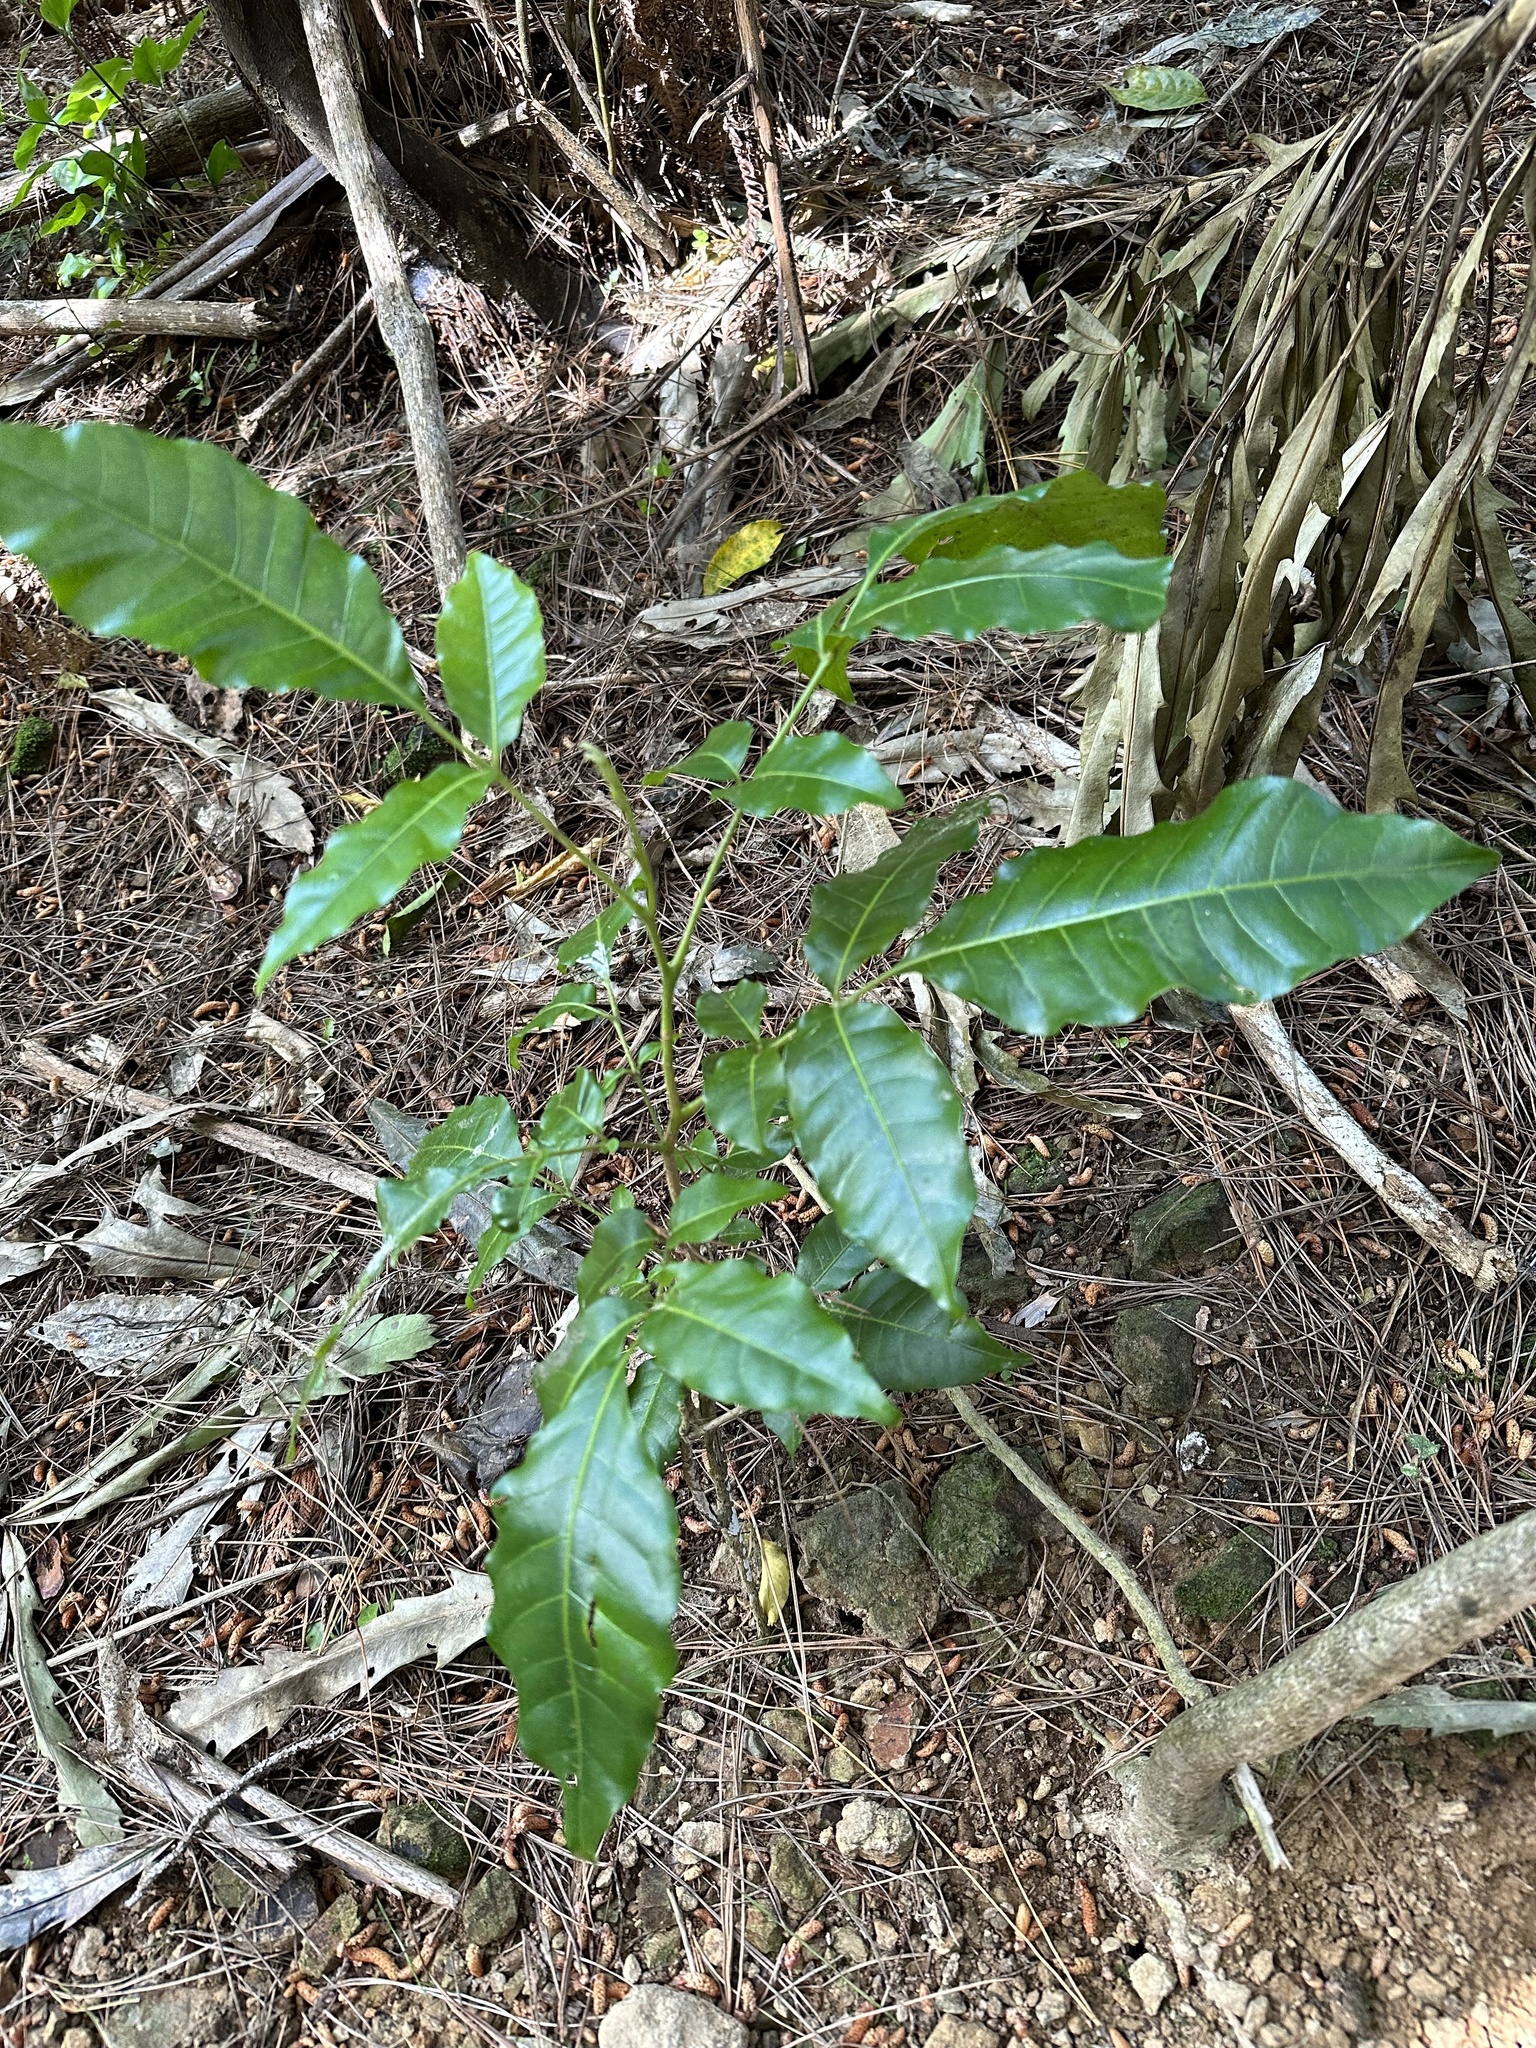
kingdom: Plantae
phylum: Tracheophyta
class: Magnoliopsida
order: Sapindales
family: Meliaceae
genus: Didymocheton
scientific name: Didymocheton spectabilis
